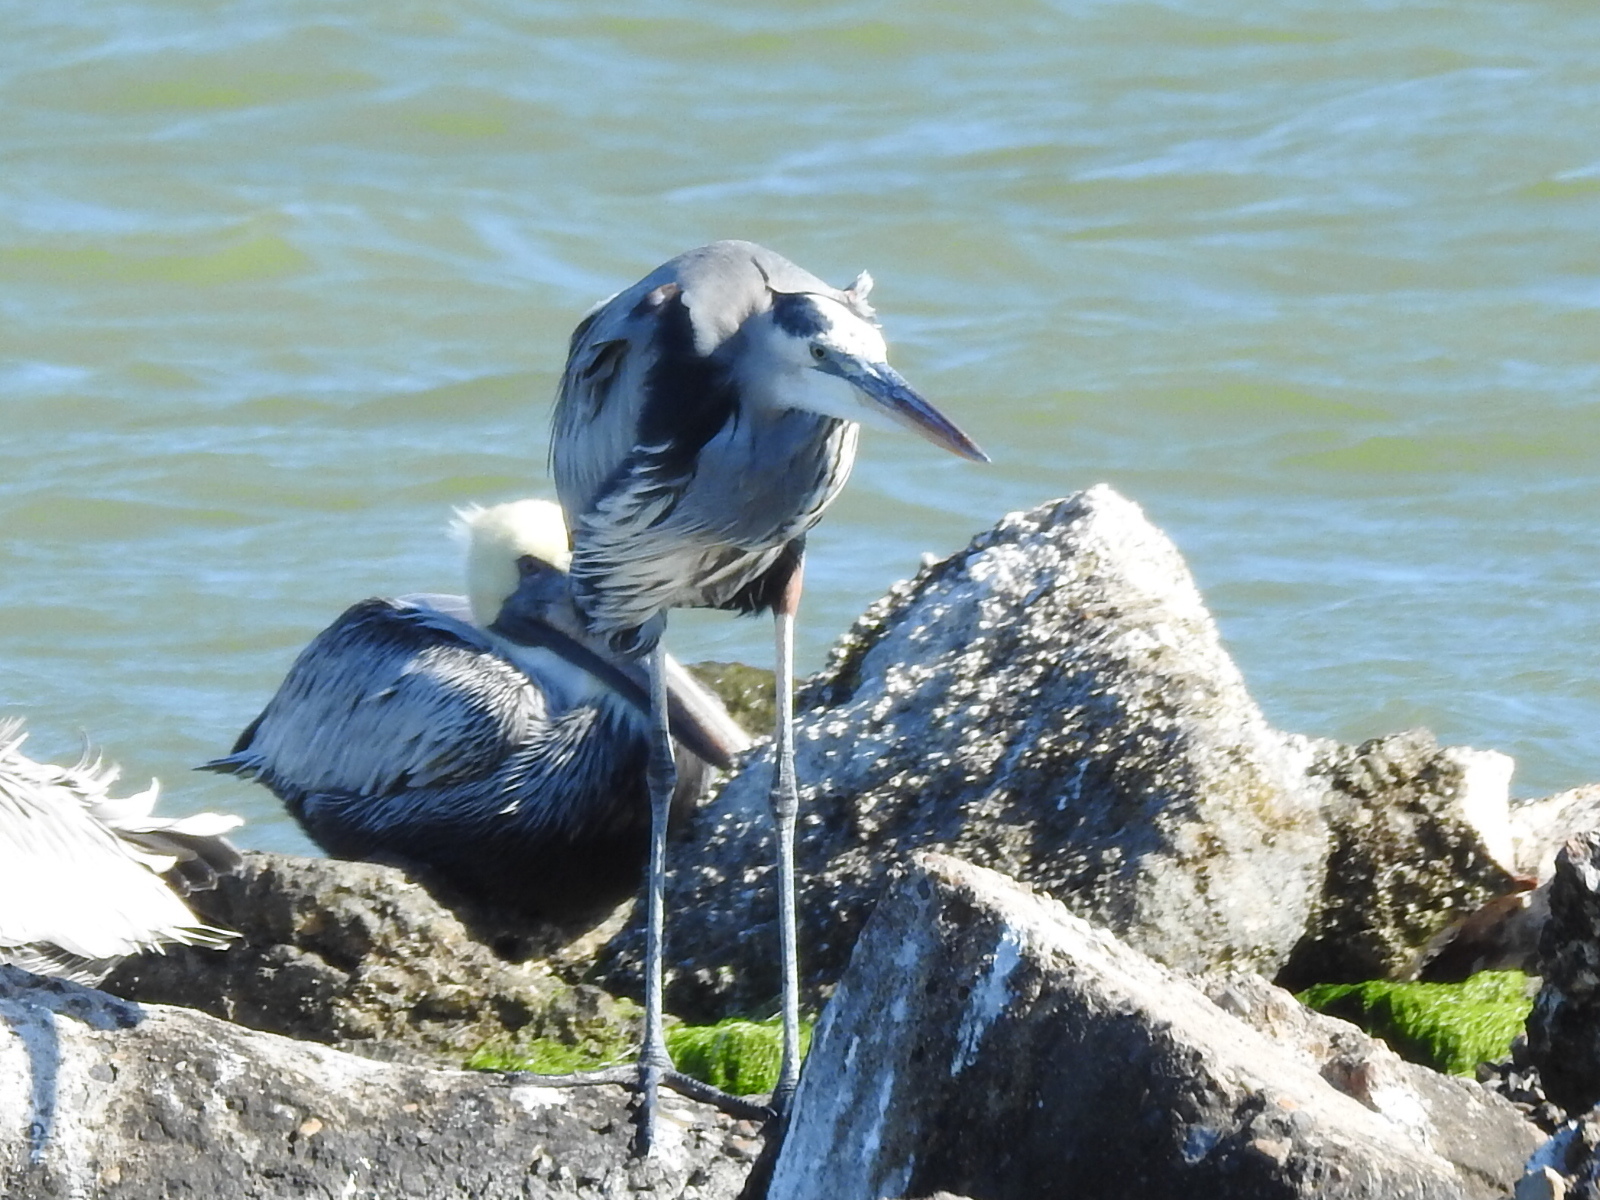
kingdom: Animalia
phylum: Chordata
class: Aves
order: Pelecaniformes
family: Ardeidae
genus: Ardea
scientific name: Ardea herodias
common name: Great blue heron
